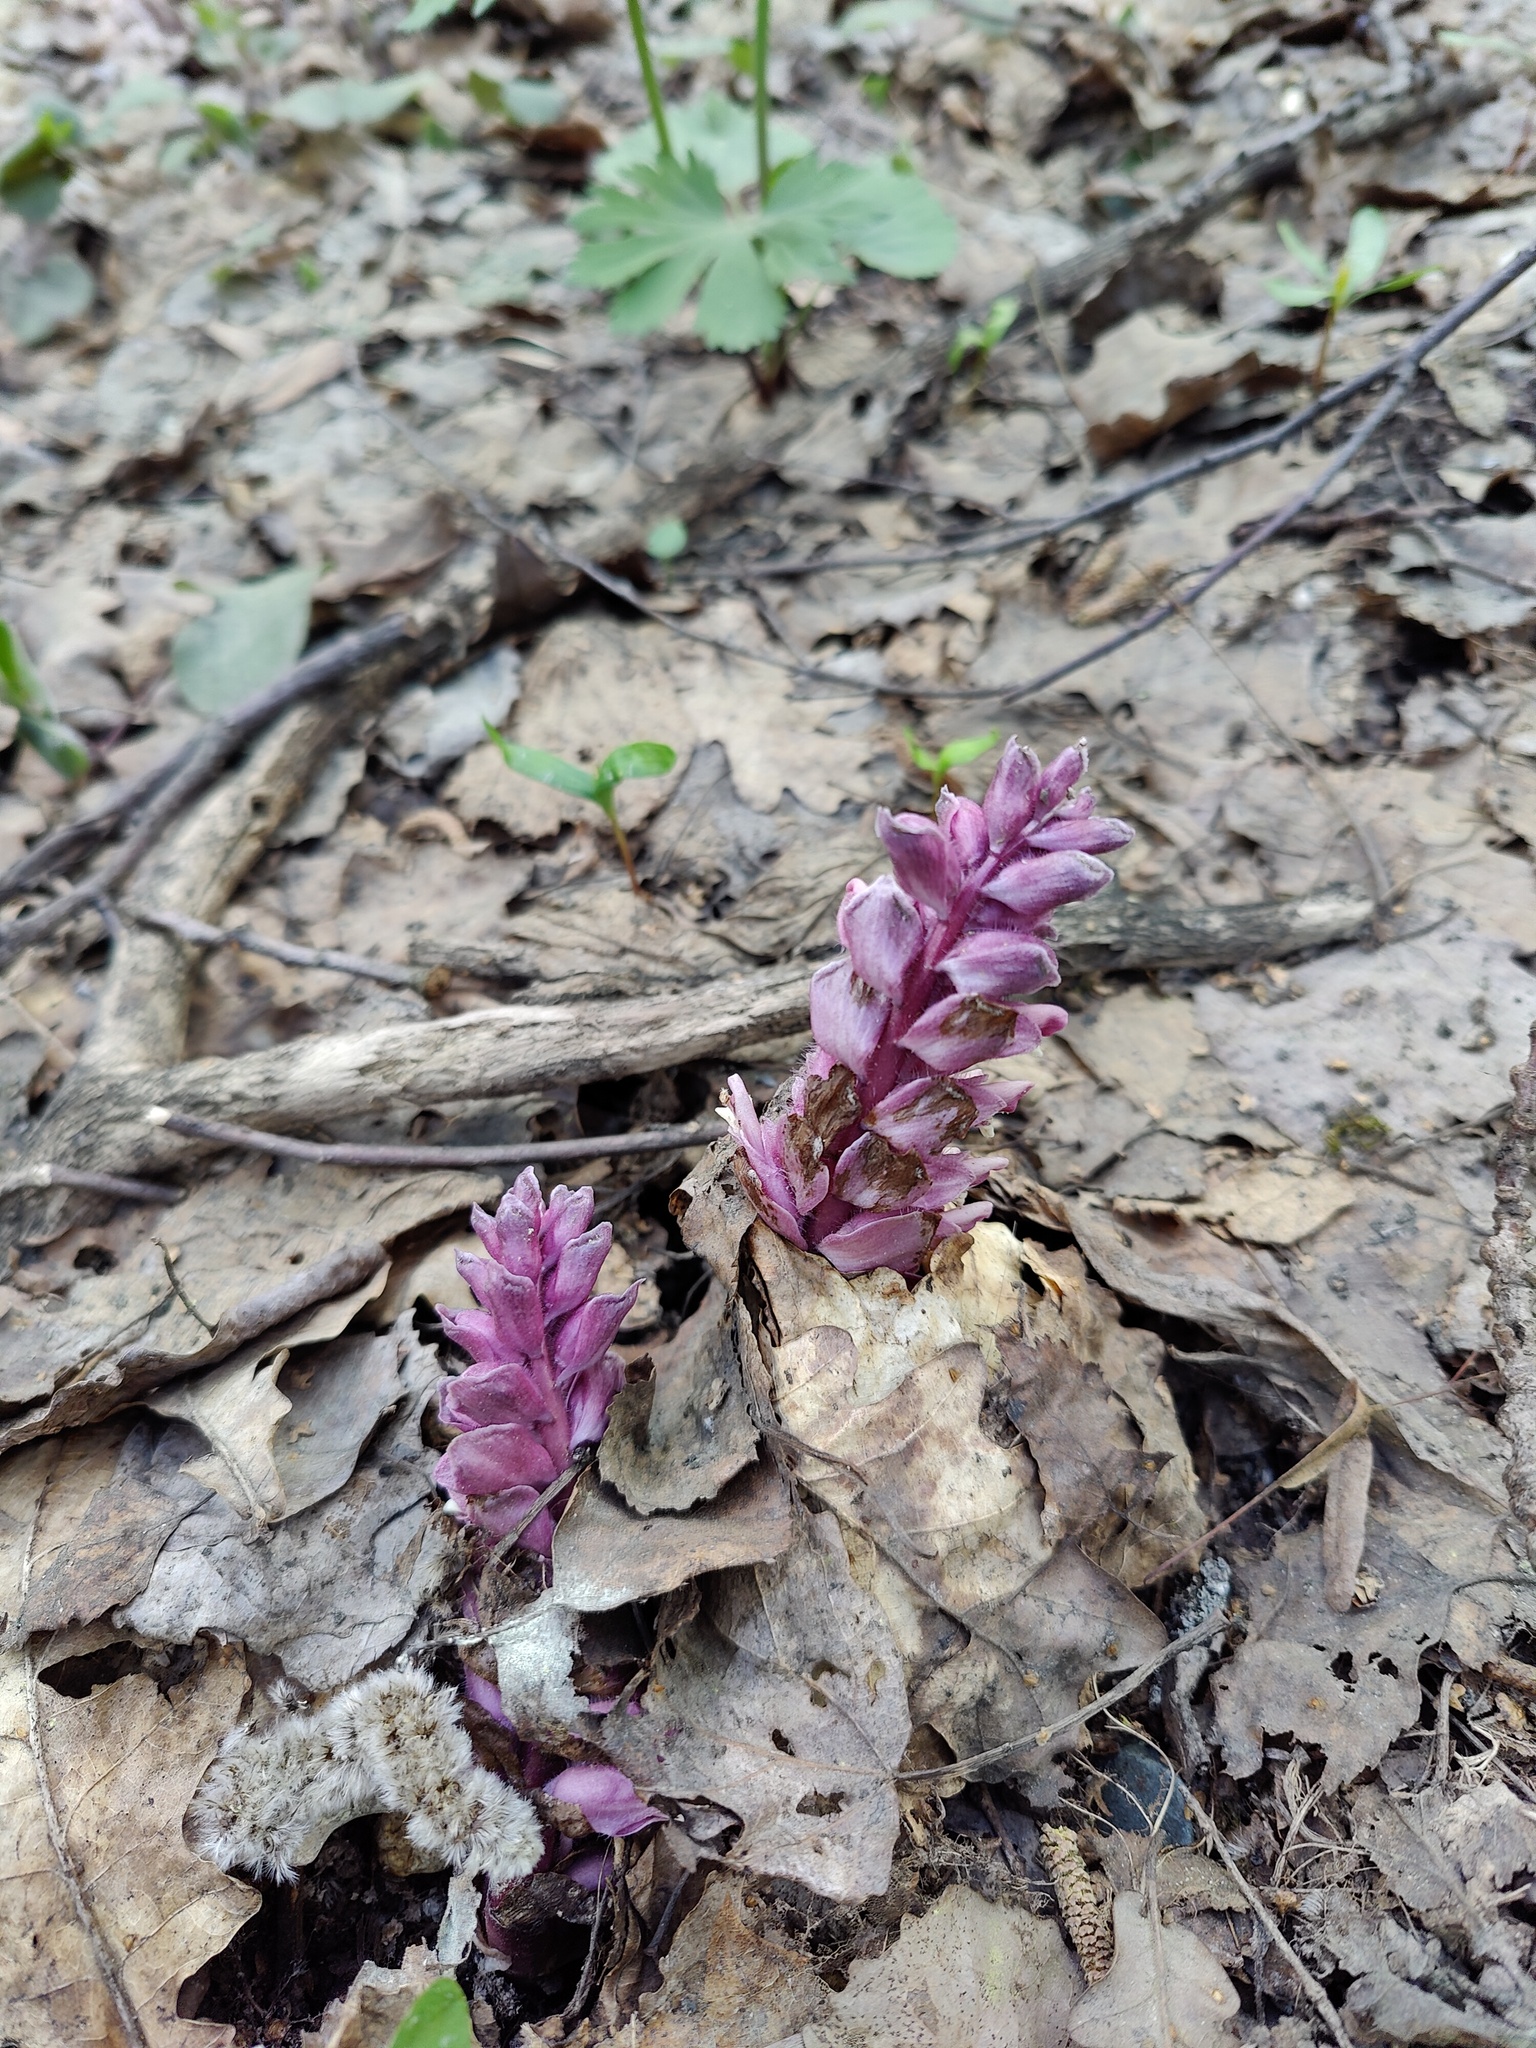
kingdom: Plantae
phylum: Tracheophyta
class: Magnoliopsida
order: Lamiales
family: Orobanchaceae
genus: Lathraea
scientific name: Lathraea squamaria
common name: Toothwort
